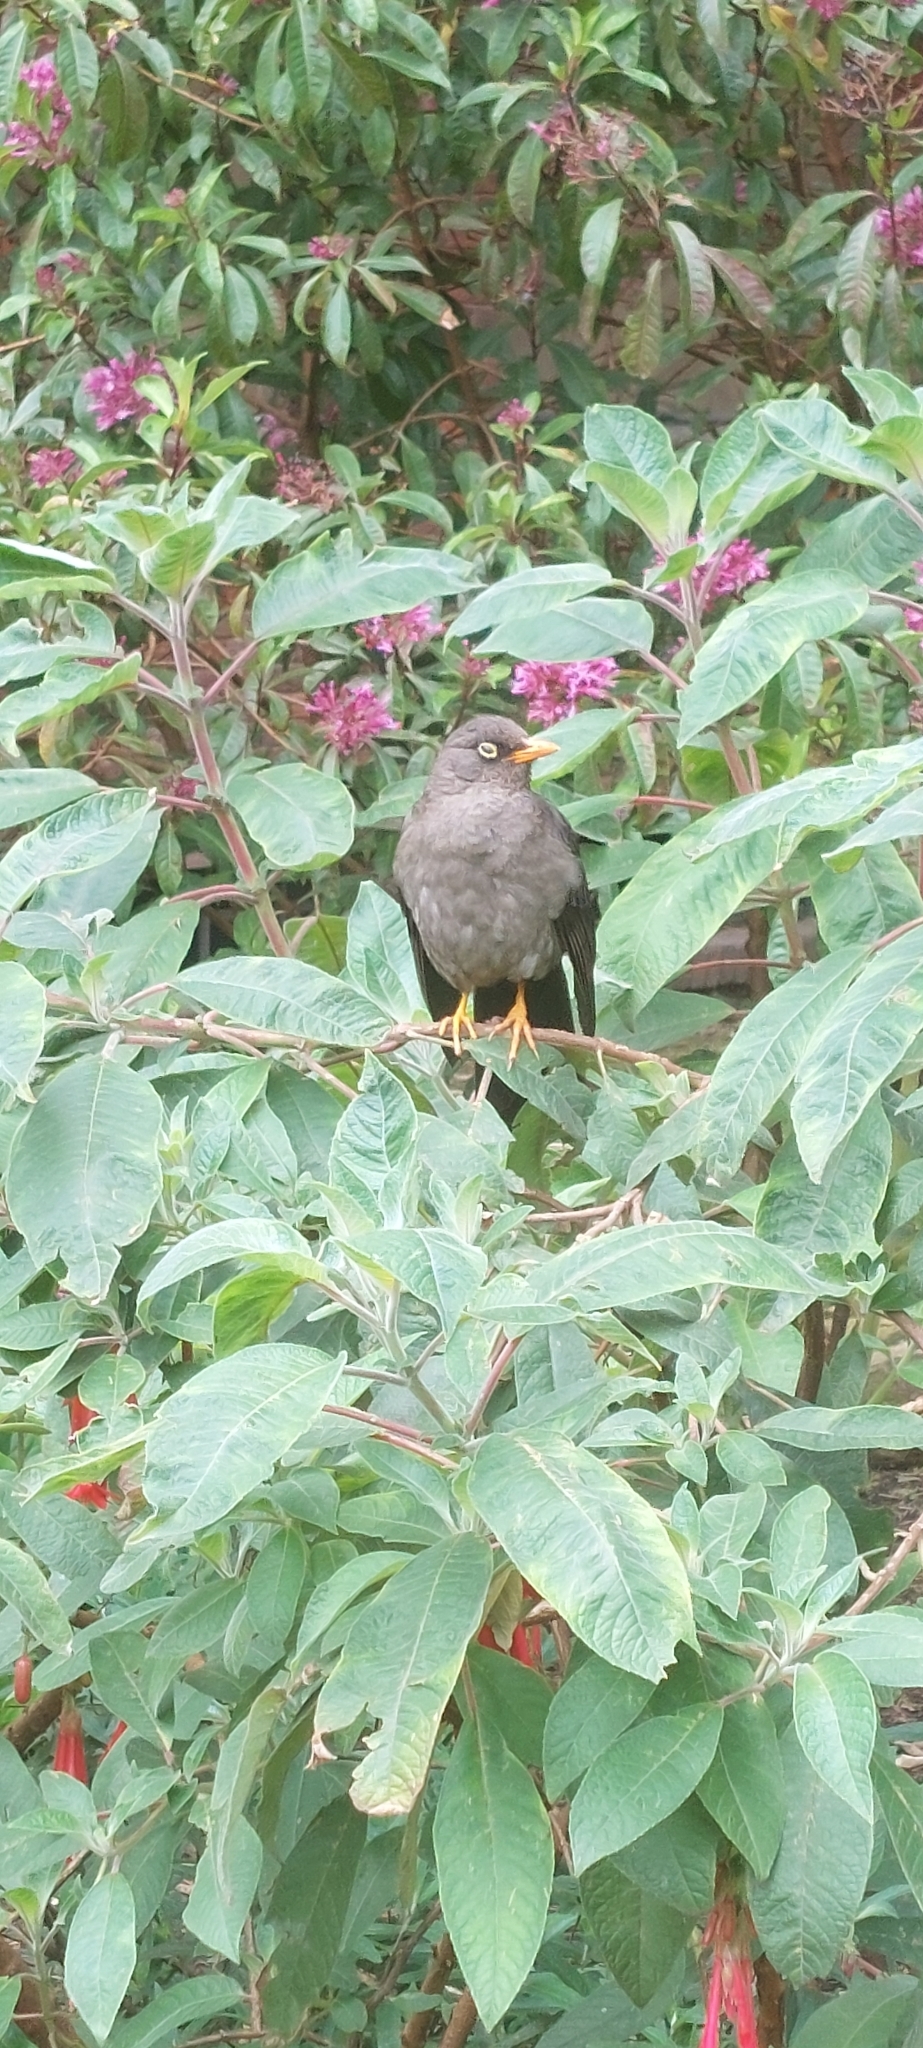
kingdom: Animalia
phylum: Chordata
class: Aves
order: Passeriformes
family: Turdidae
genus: Turdus
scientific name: Turdus fuscater
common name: Great thrush
